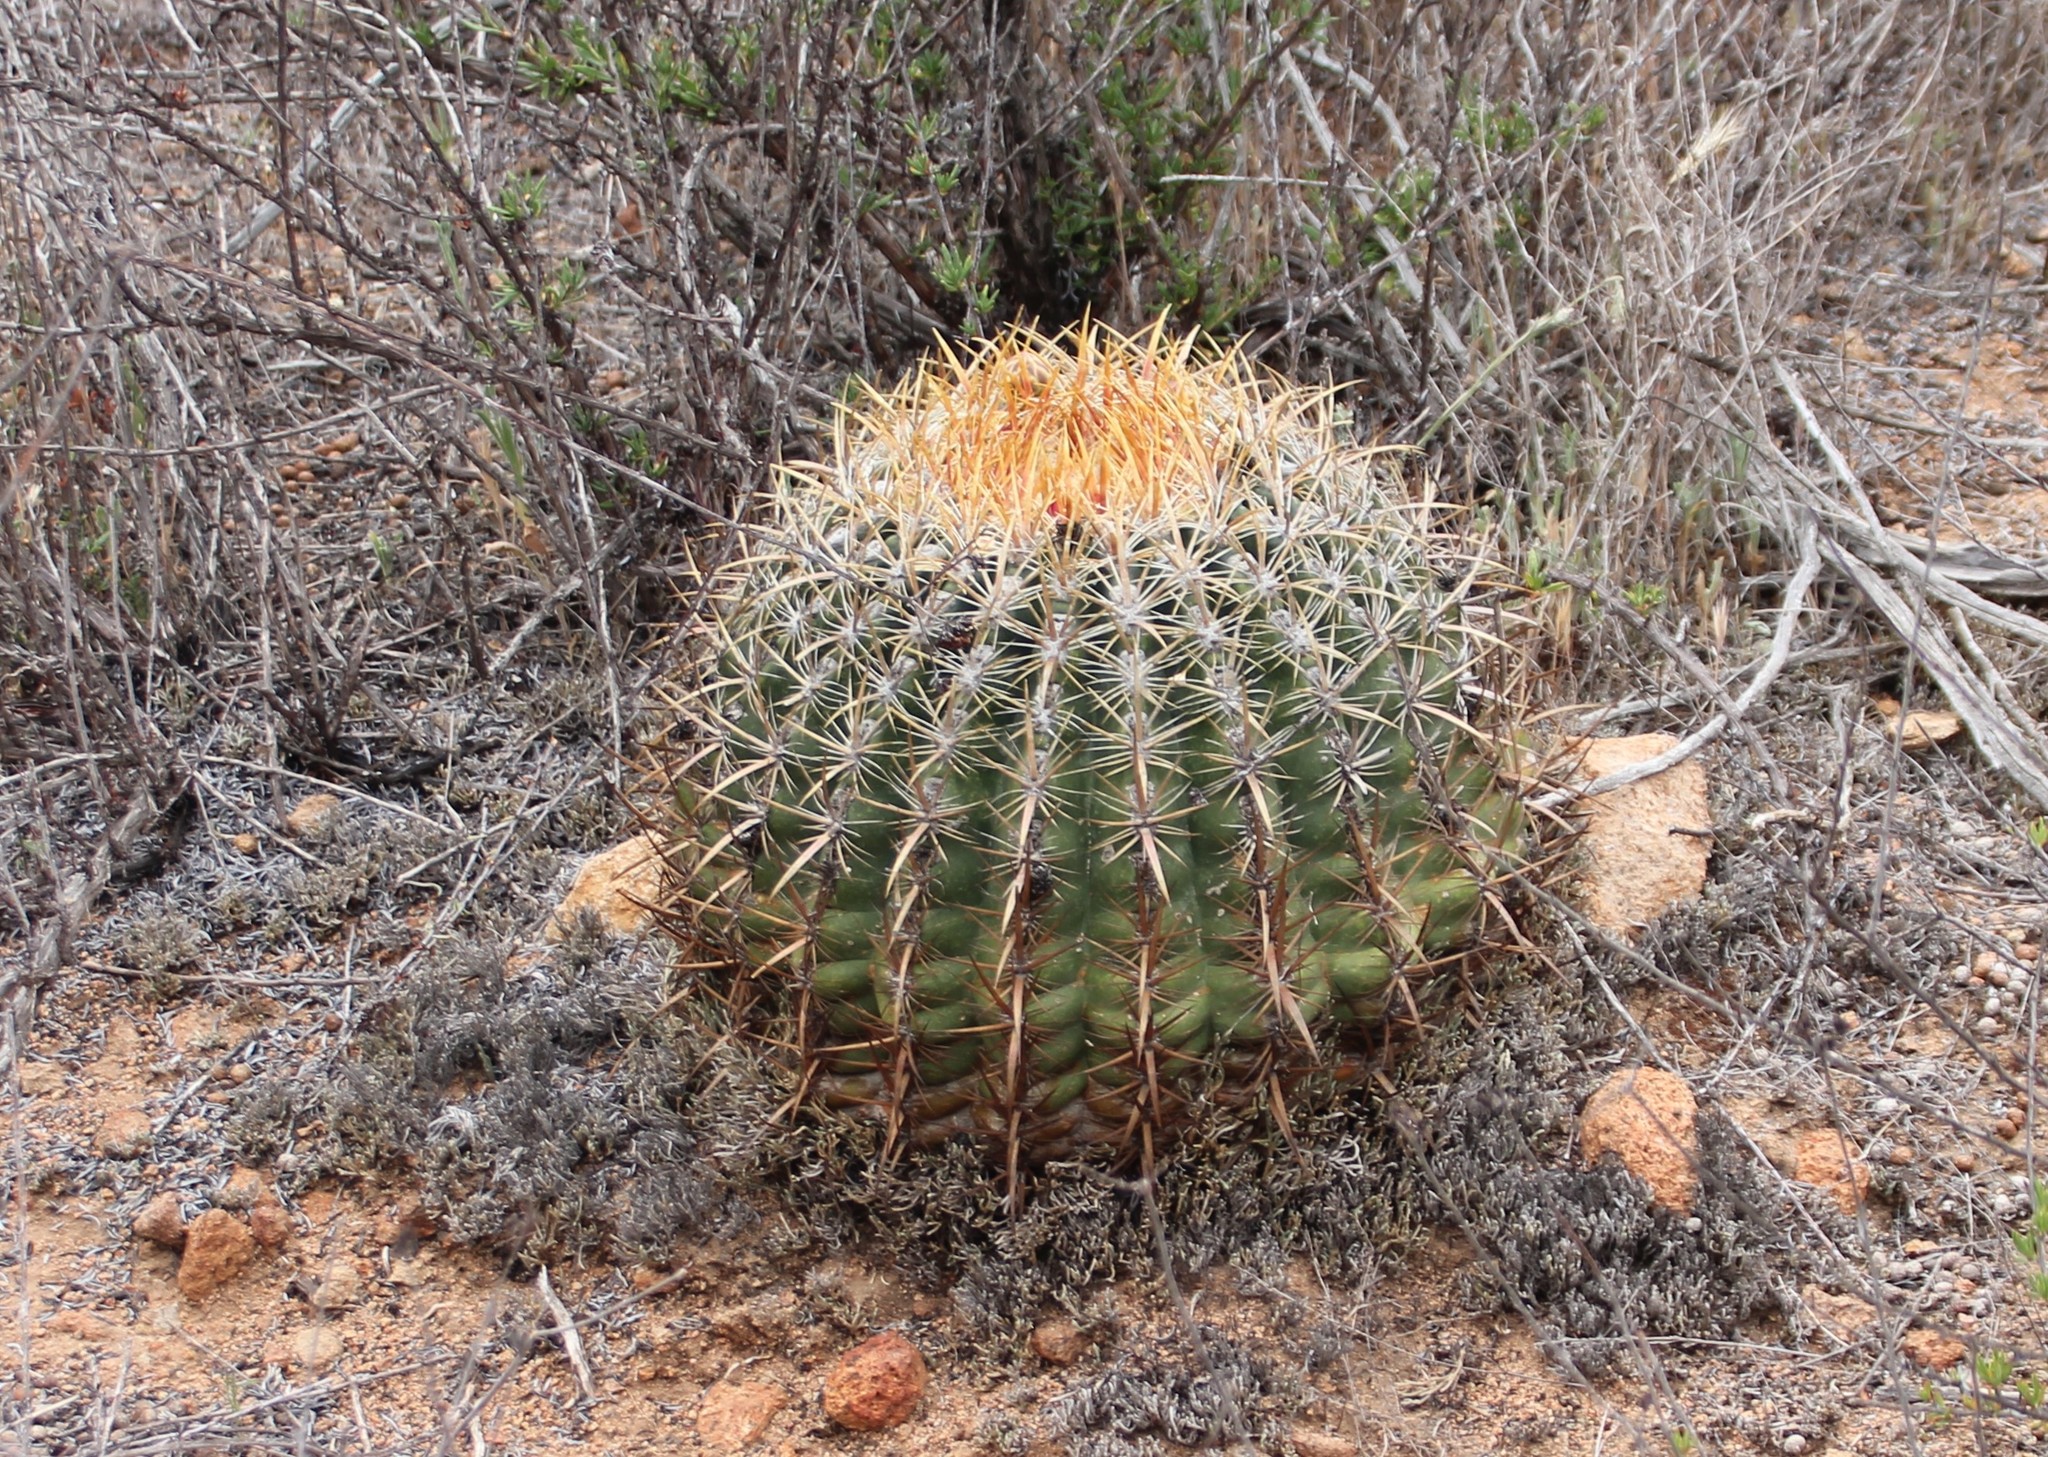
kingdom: Plantae
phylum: Tracheophyta
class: Magnoliopsida
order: Caryophyllales
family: Cactaceae
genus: Ferocactus
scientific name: Ferocactus viridescens
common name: San diego barrel cactus
